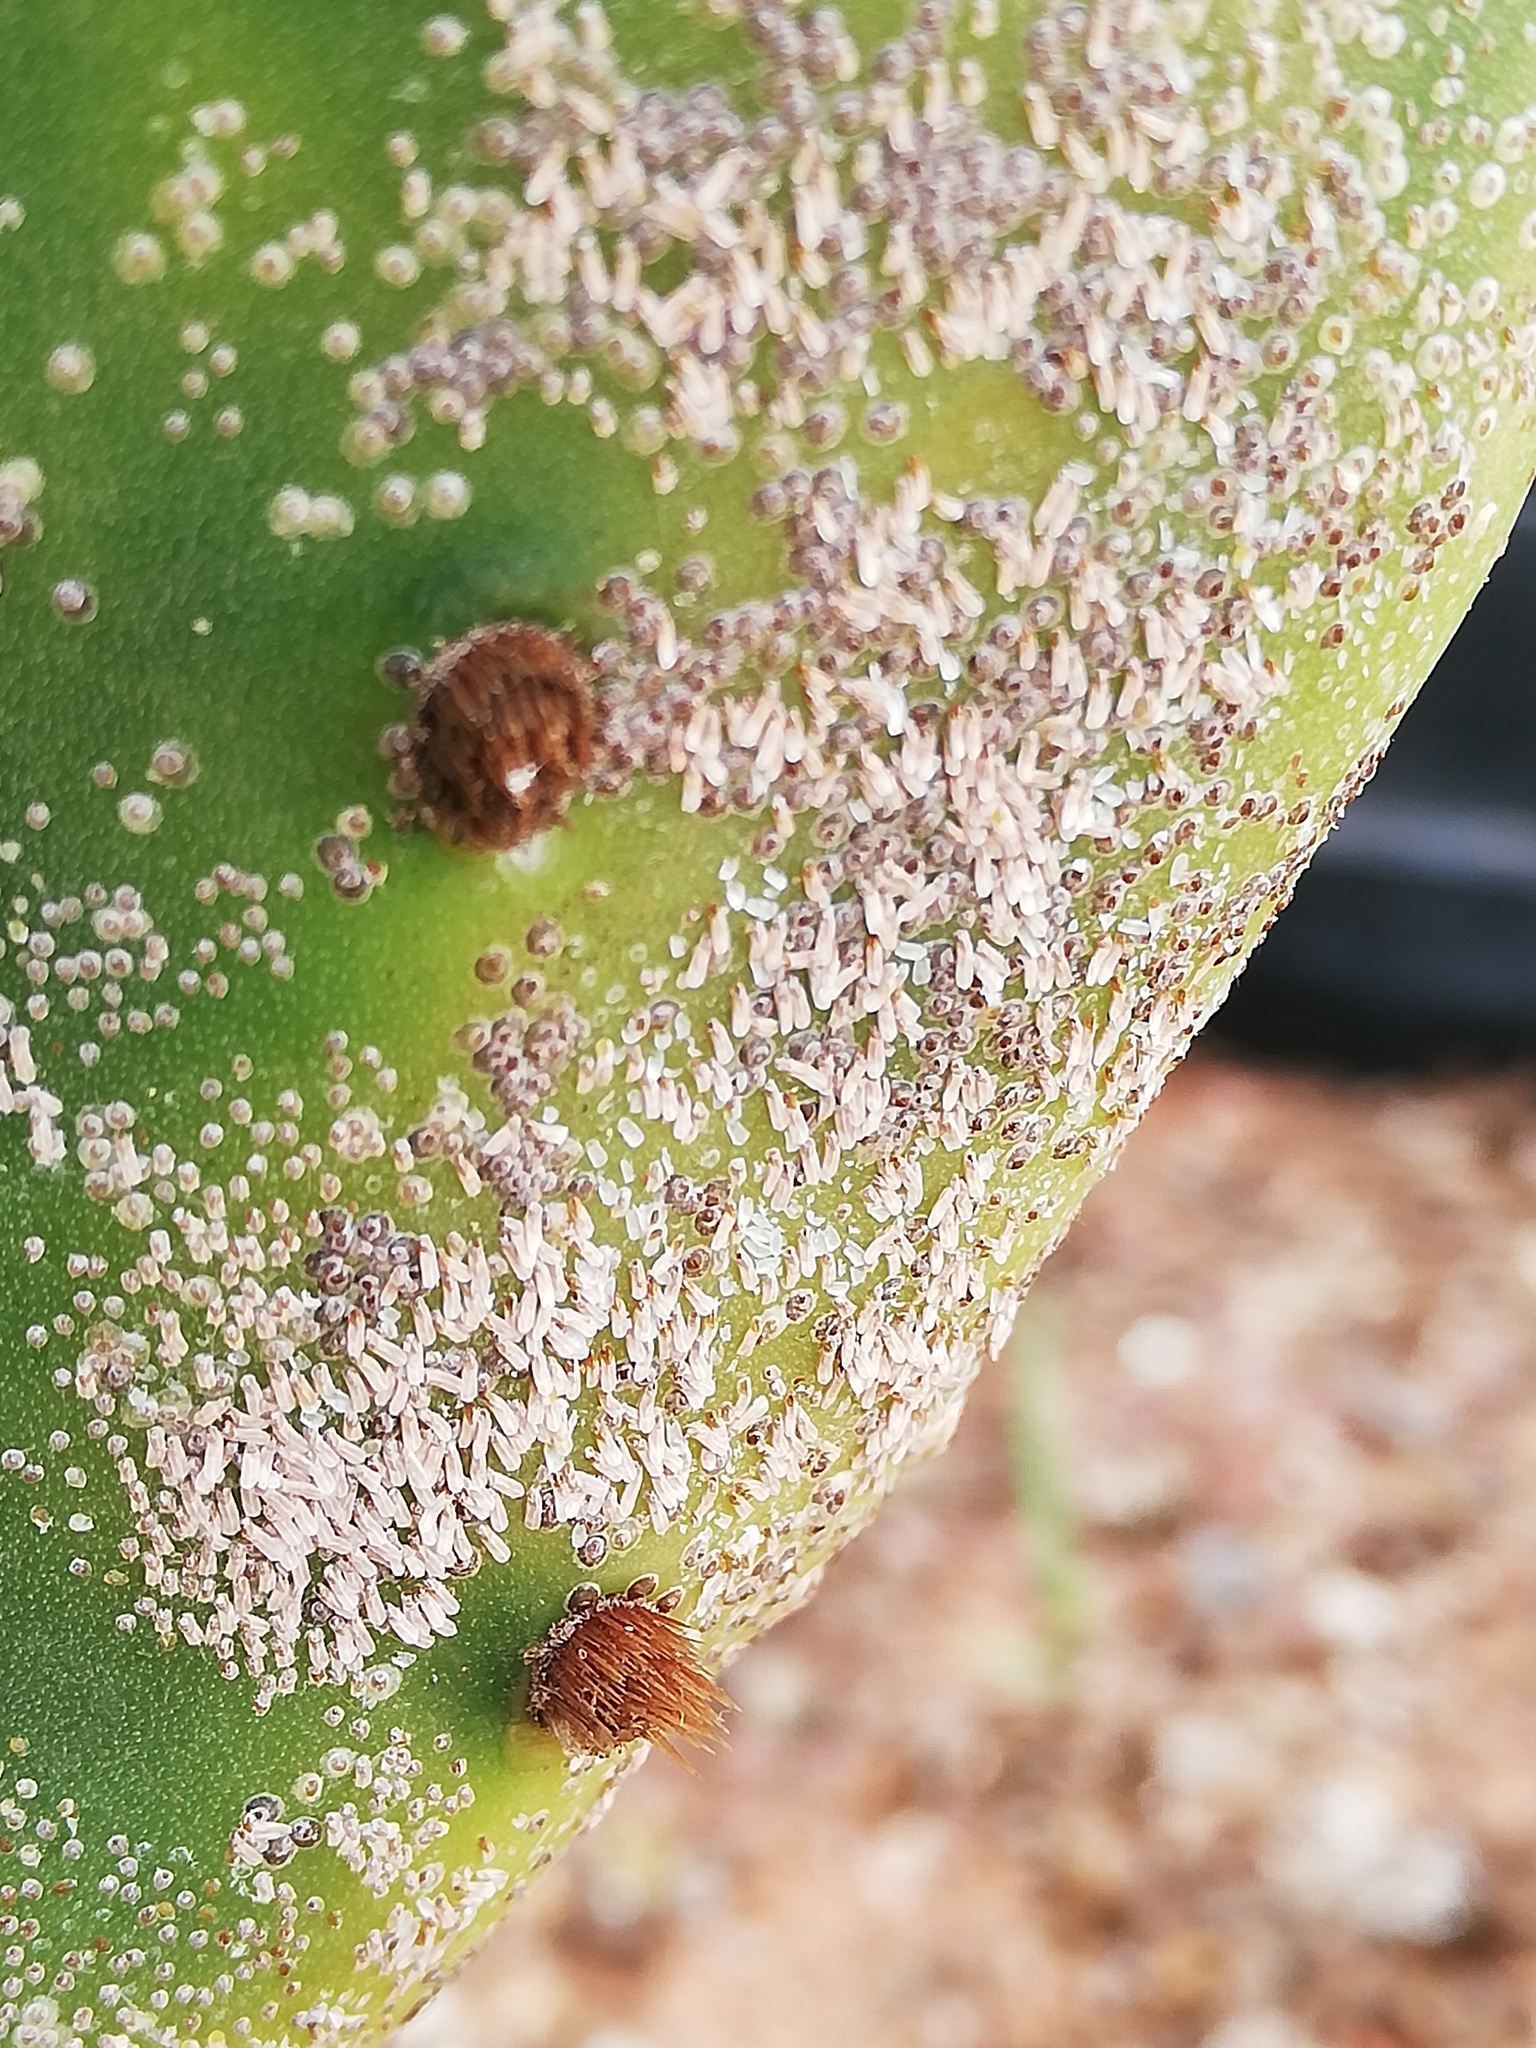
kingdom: Animalia
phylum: Arthropoda
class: Insecta
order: Hemiptera
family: Diaspididae
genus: Diaspis
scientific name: Diaspis echinocacti
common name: Cactus scale
